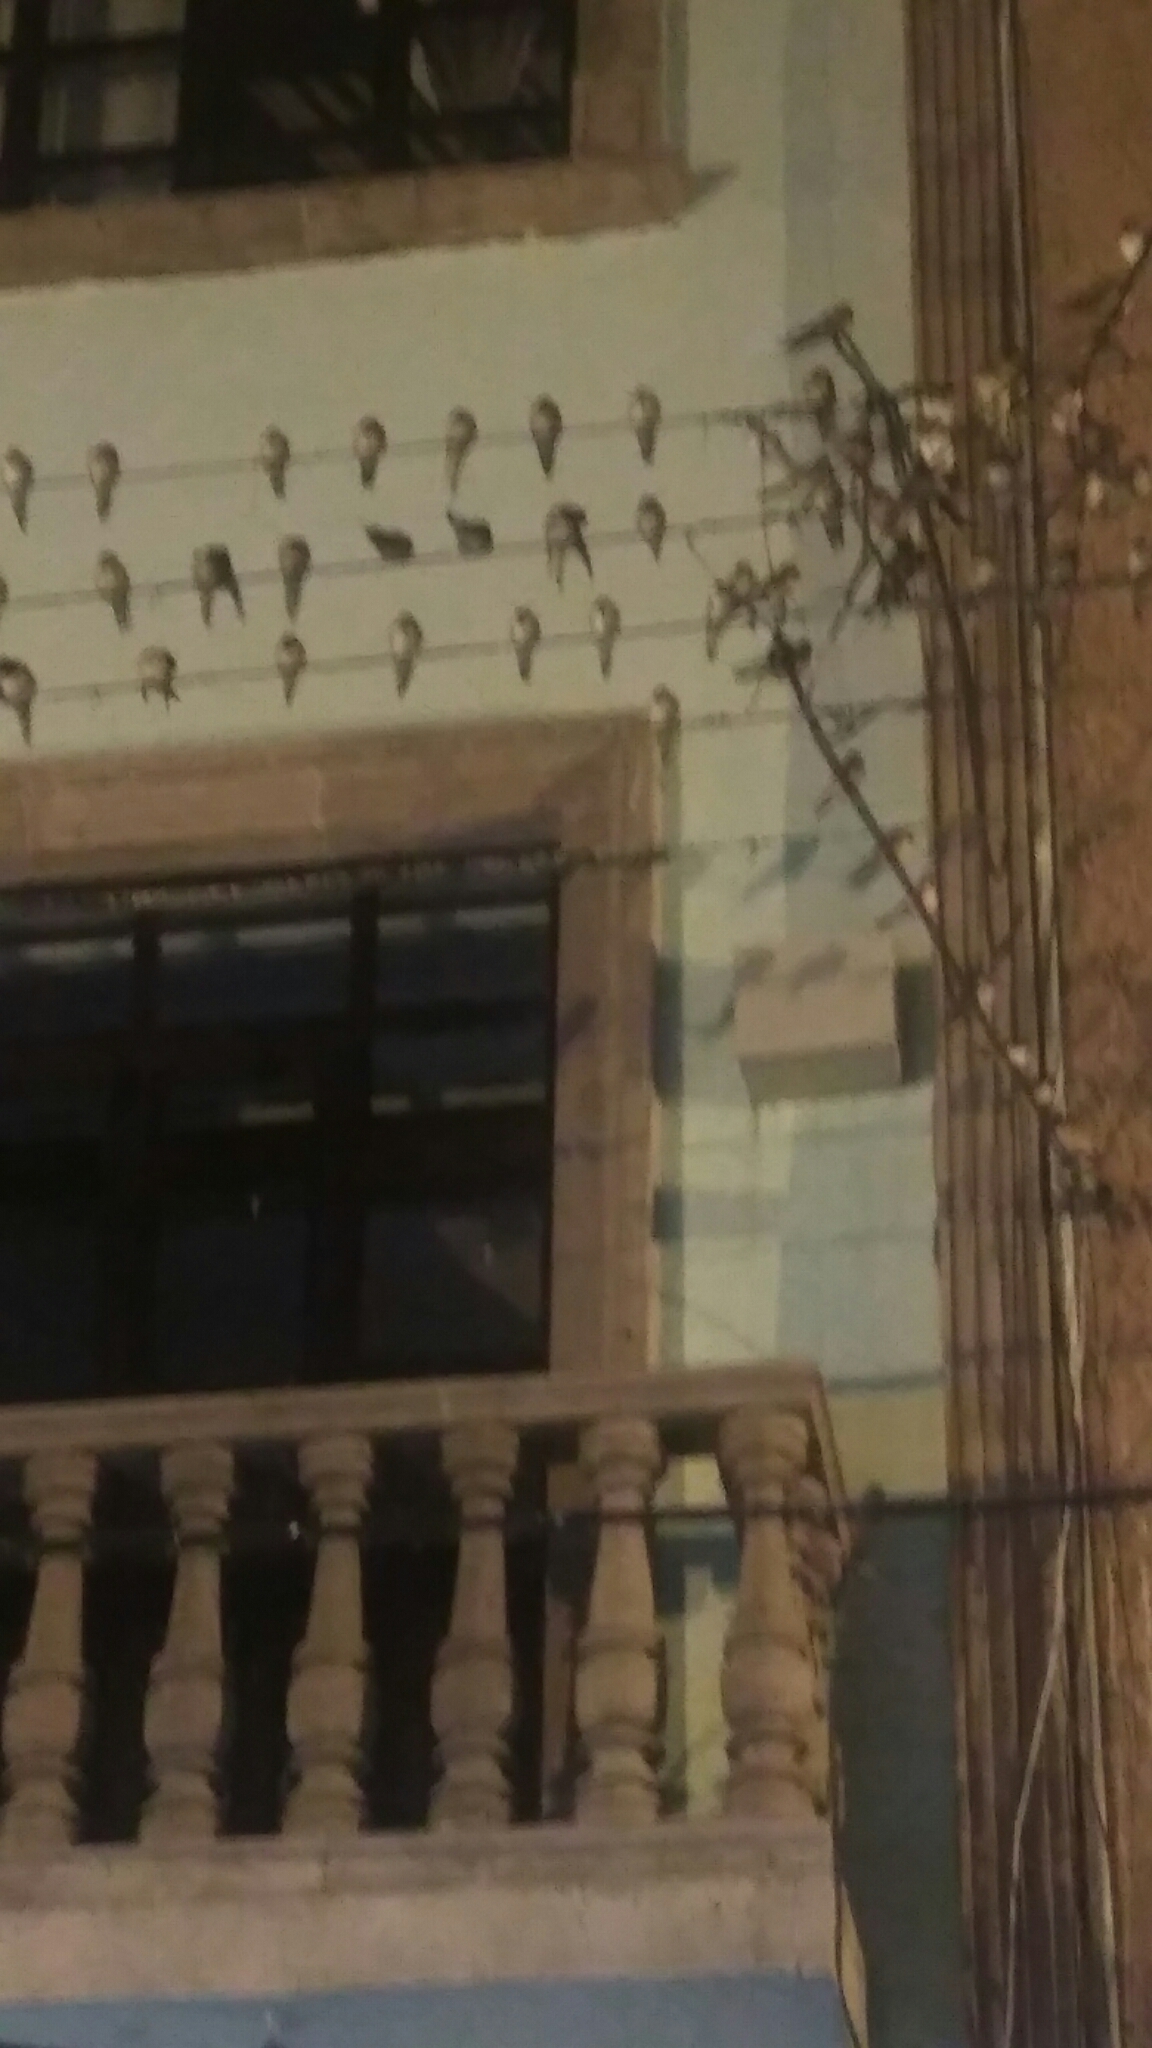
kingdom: Animalia
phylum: Chordata
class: Aves
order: Passeriformes
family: Hirundinidae
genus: Hirundo
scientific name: Hirundo rustica
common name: Barn swallow
